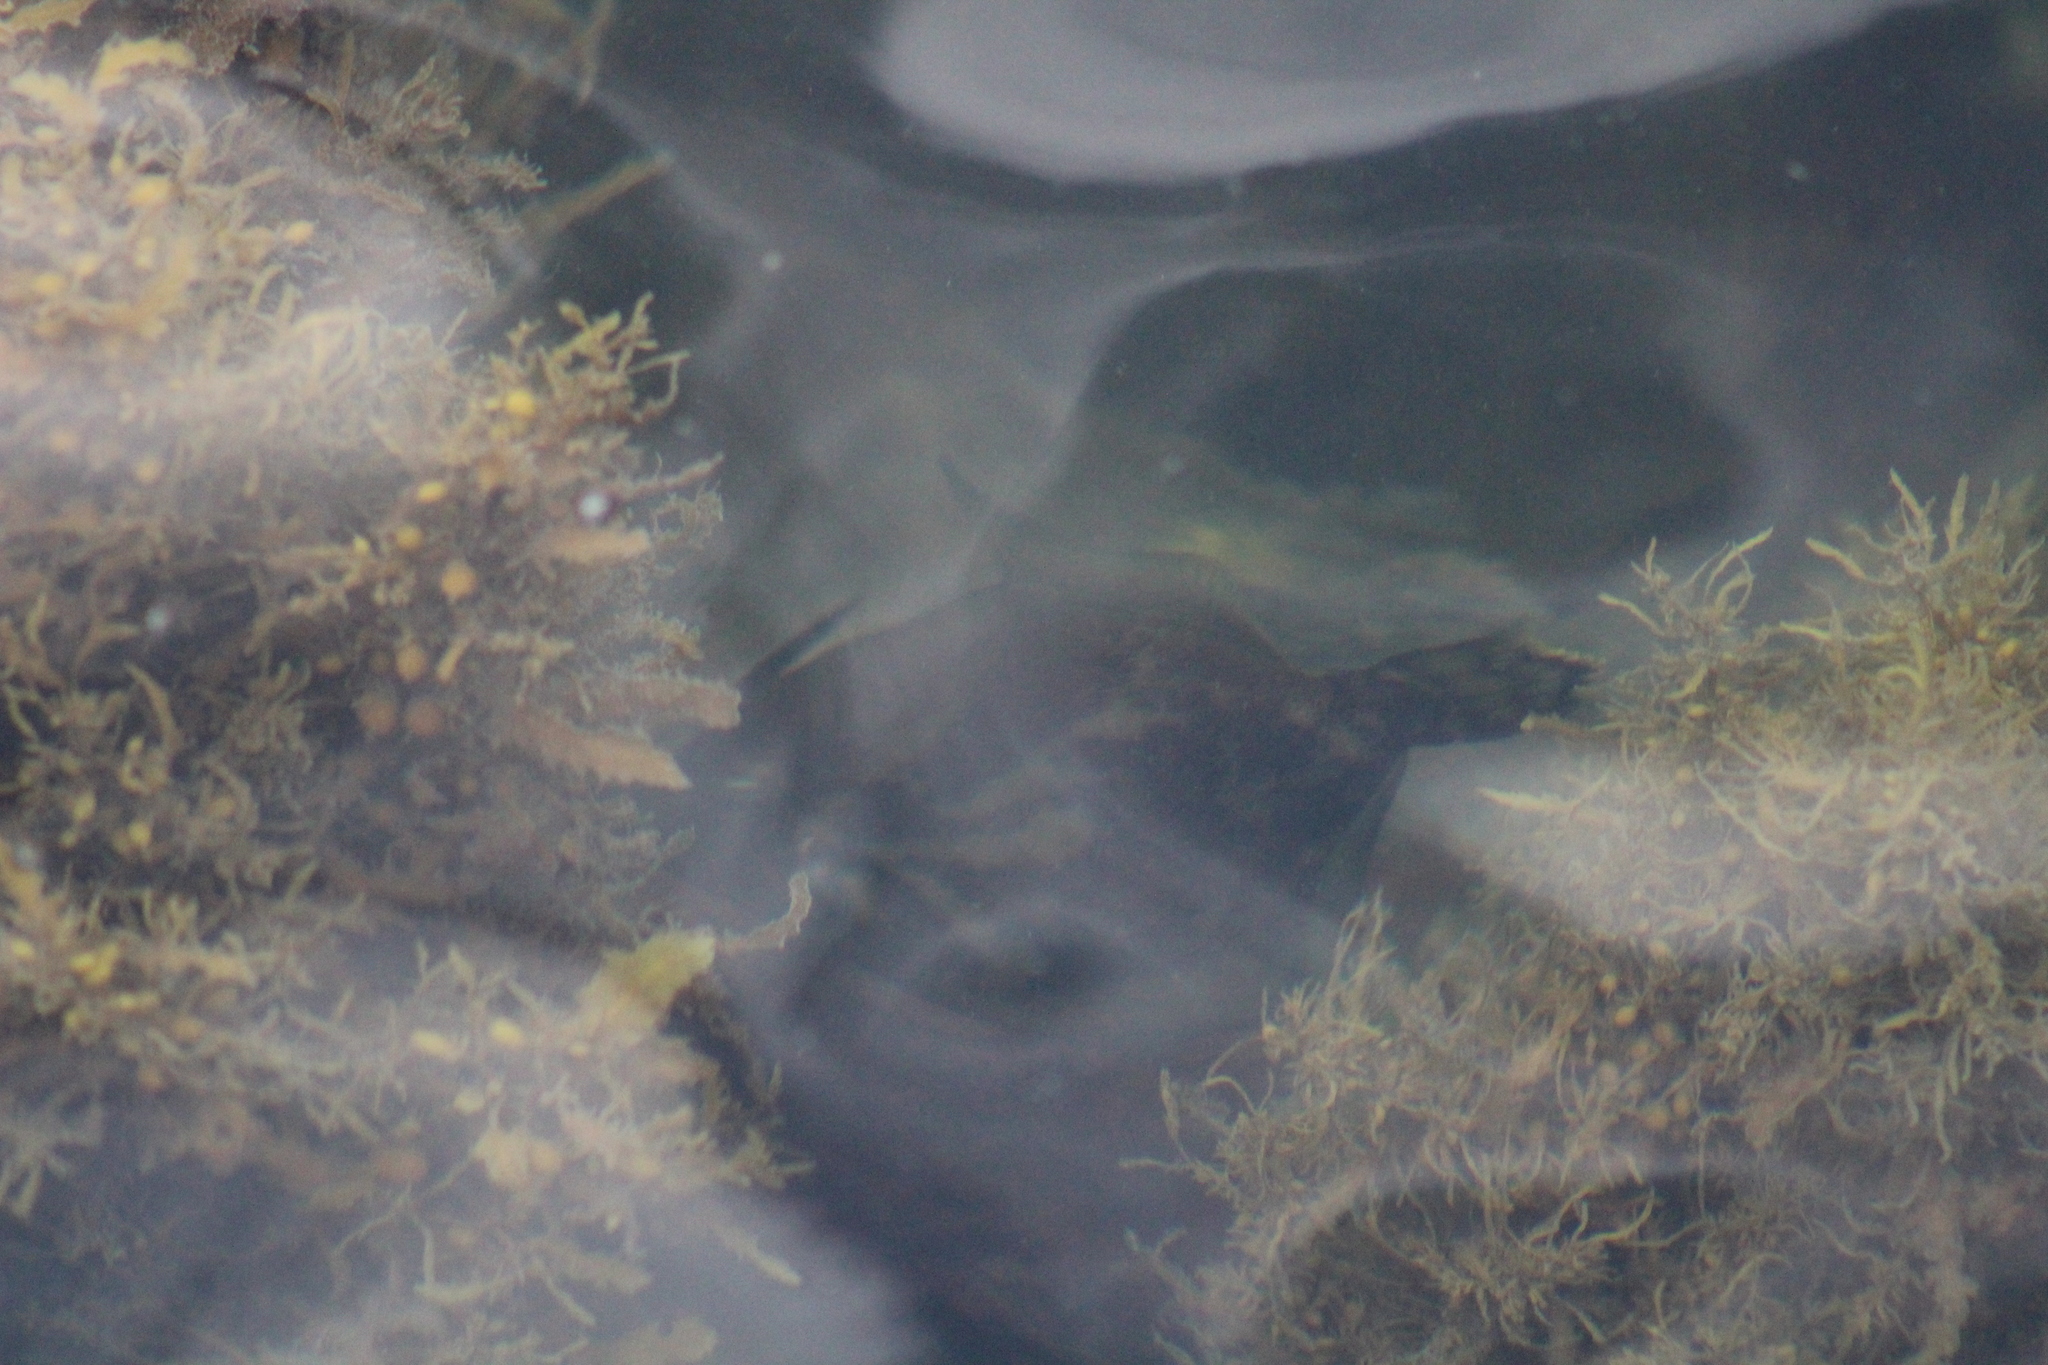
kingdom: Animalia
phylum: Chordata
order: Tetraodontiformes
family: Monacanthidae
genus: Monacanthus
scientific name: Monacanthus chinensis
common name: Centreboard leatherjacket
